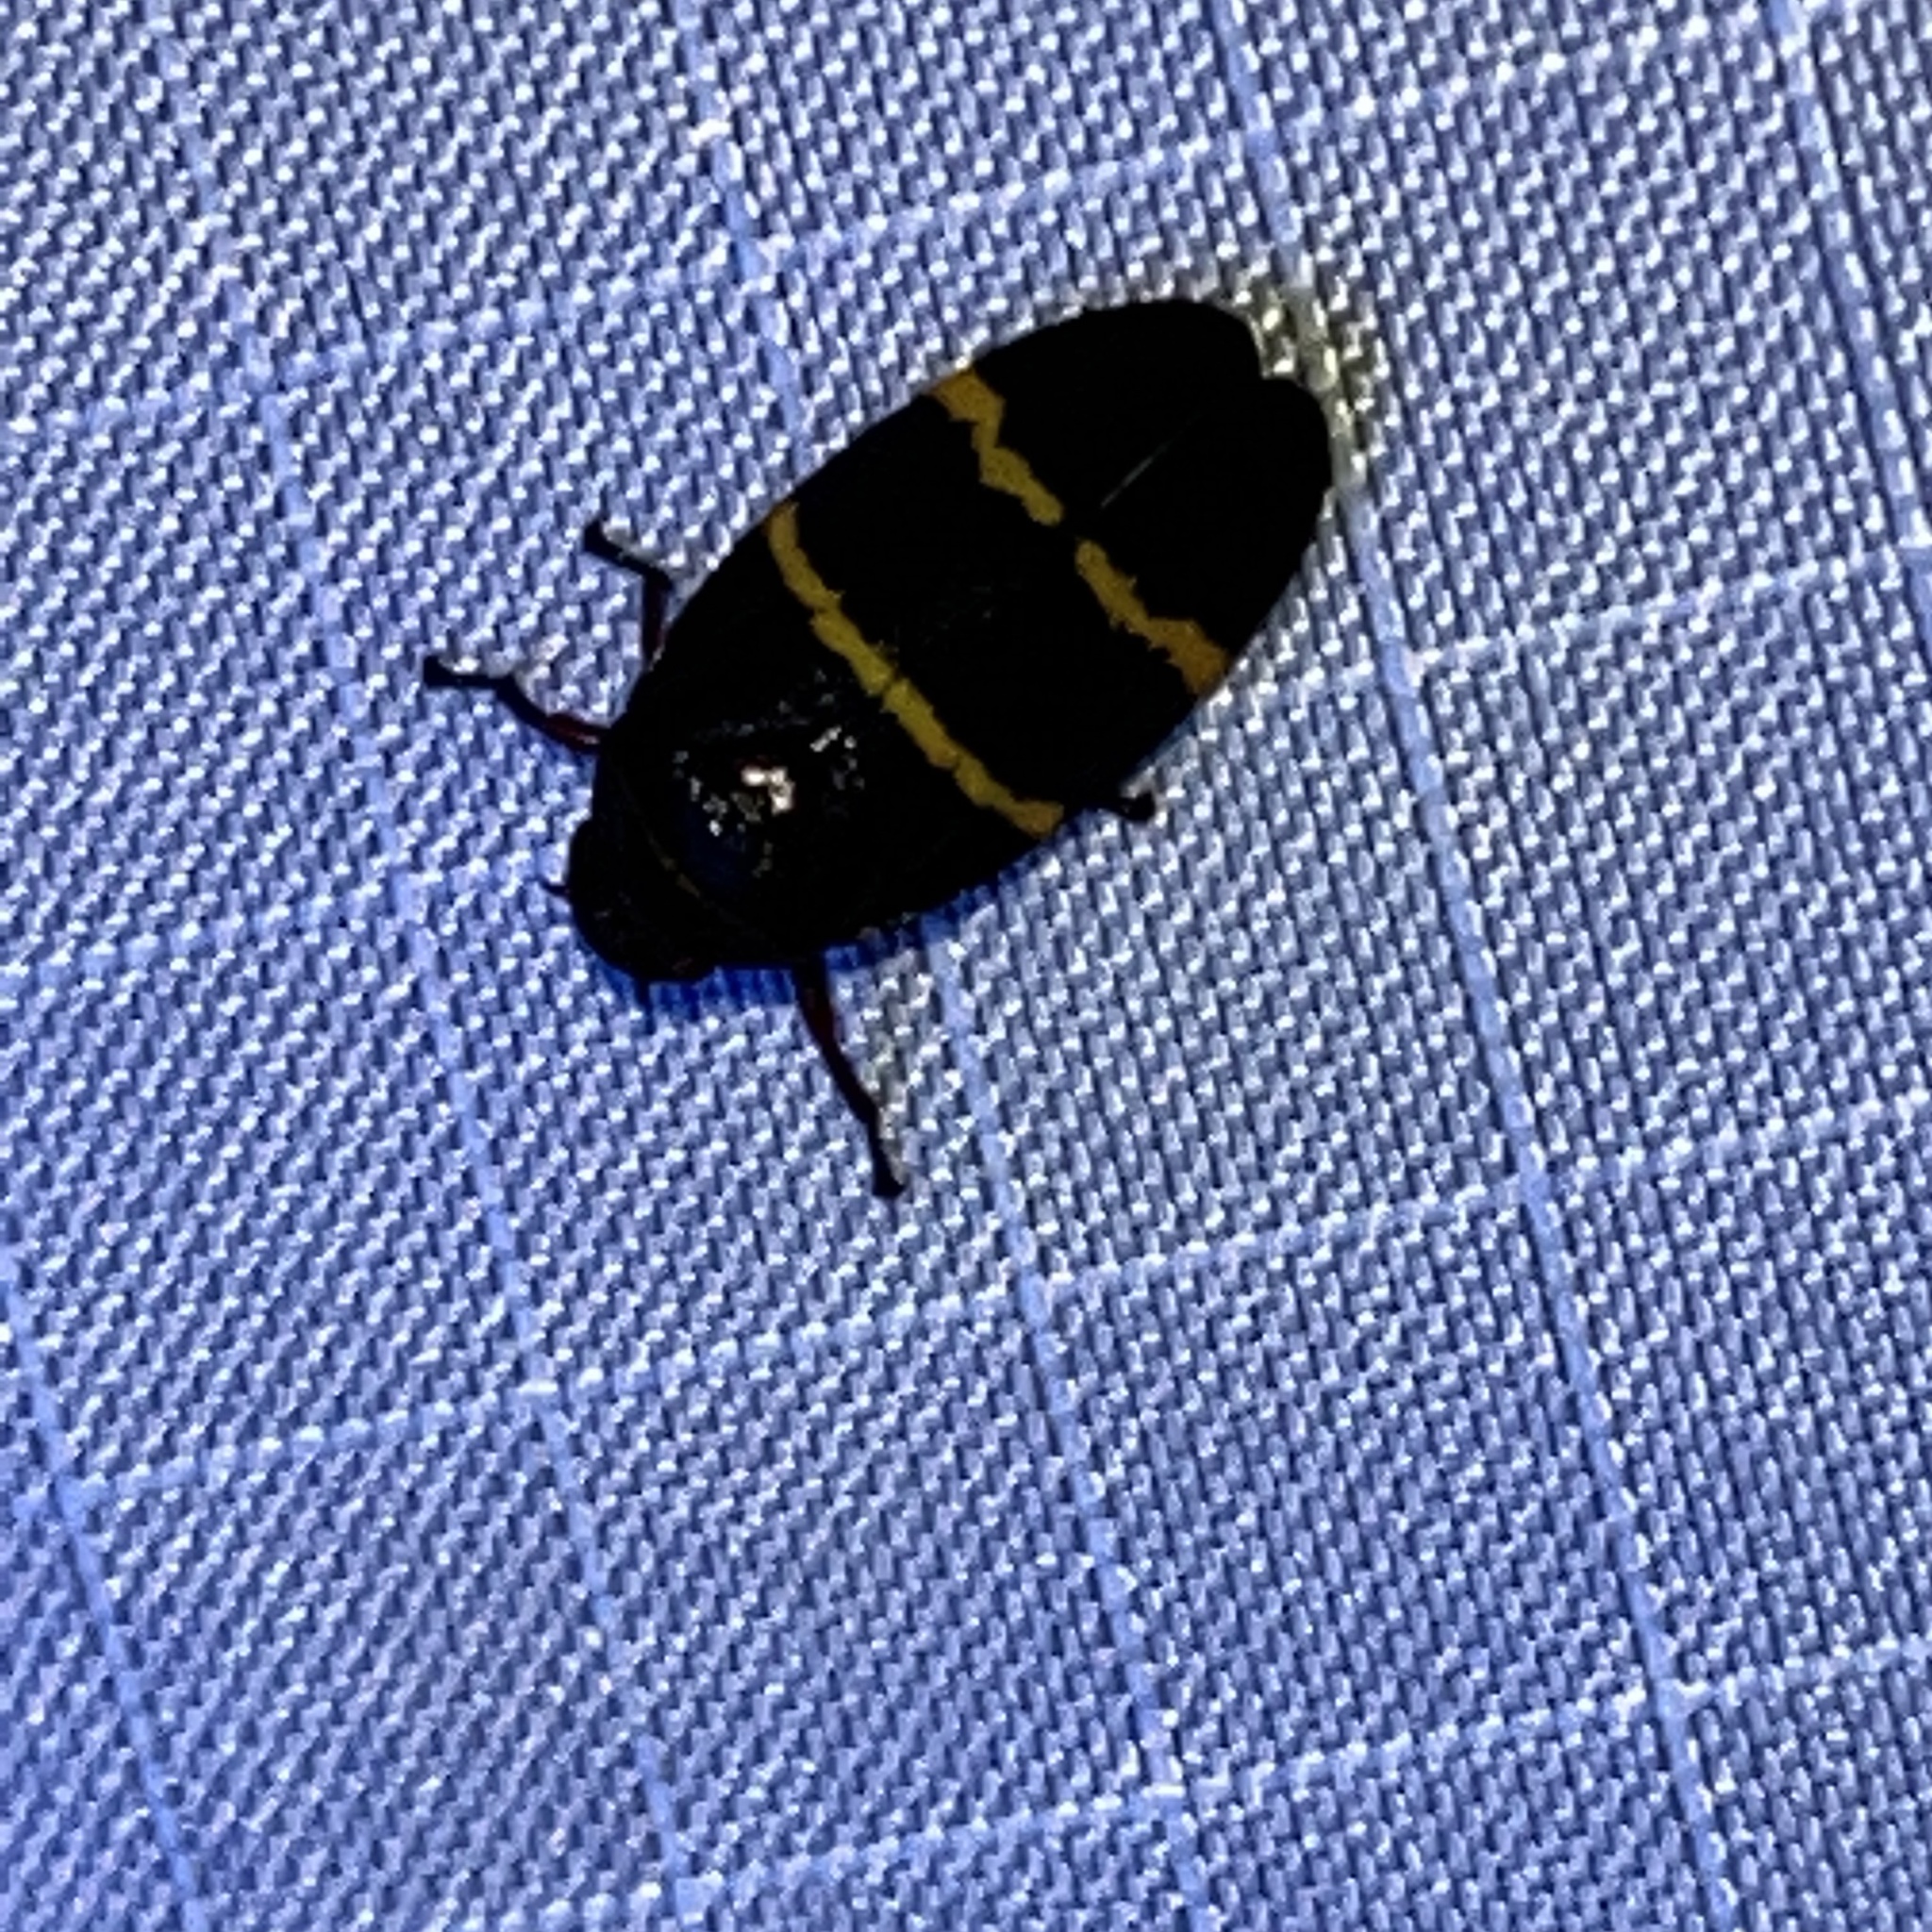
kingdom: Animalia
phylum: Arthropoda
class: Insecta
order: Hemiptera
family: Cercopidae
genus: Prosapia
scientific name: Prosapia bicincta
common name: Twolined spittlebug
